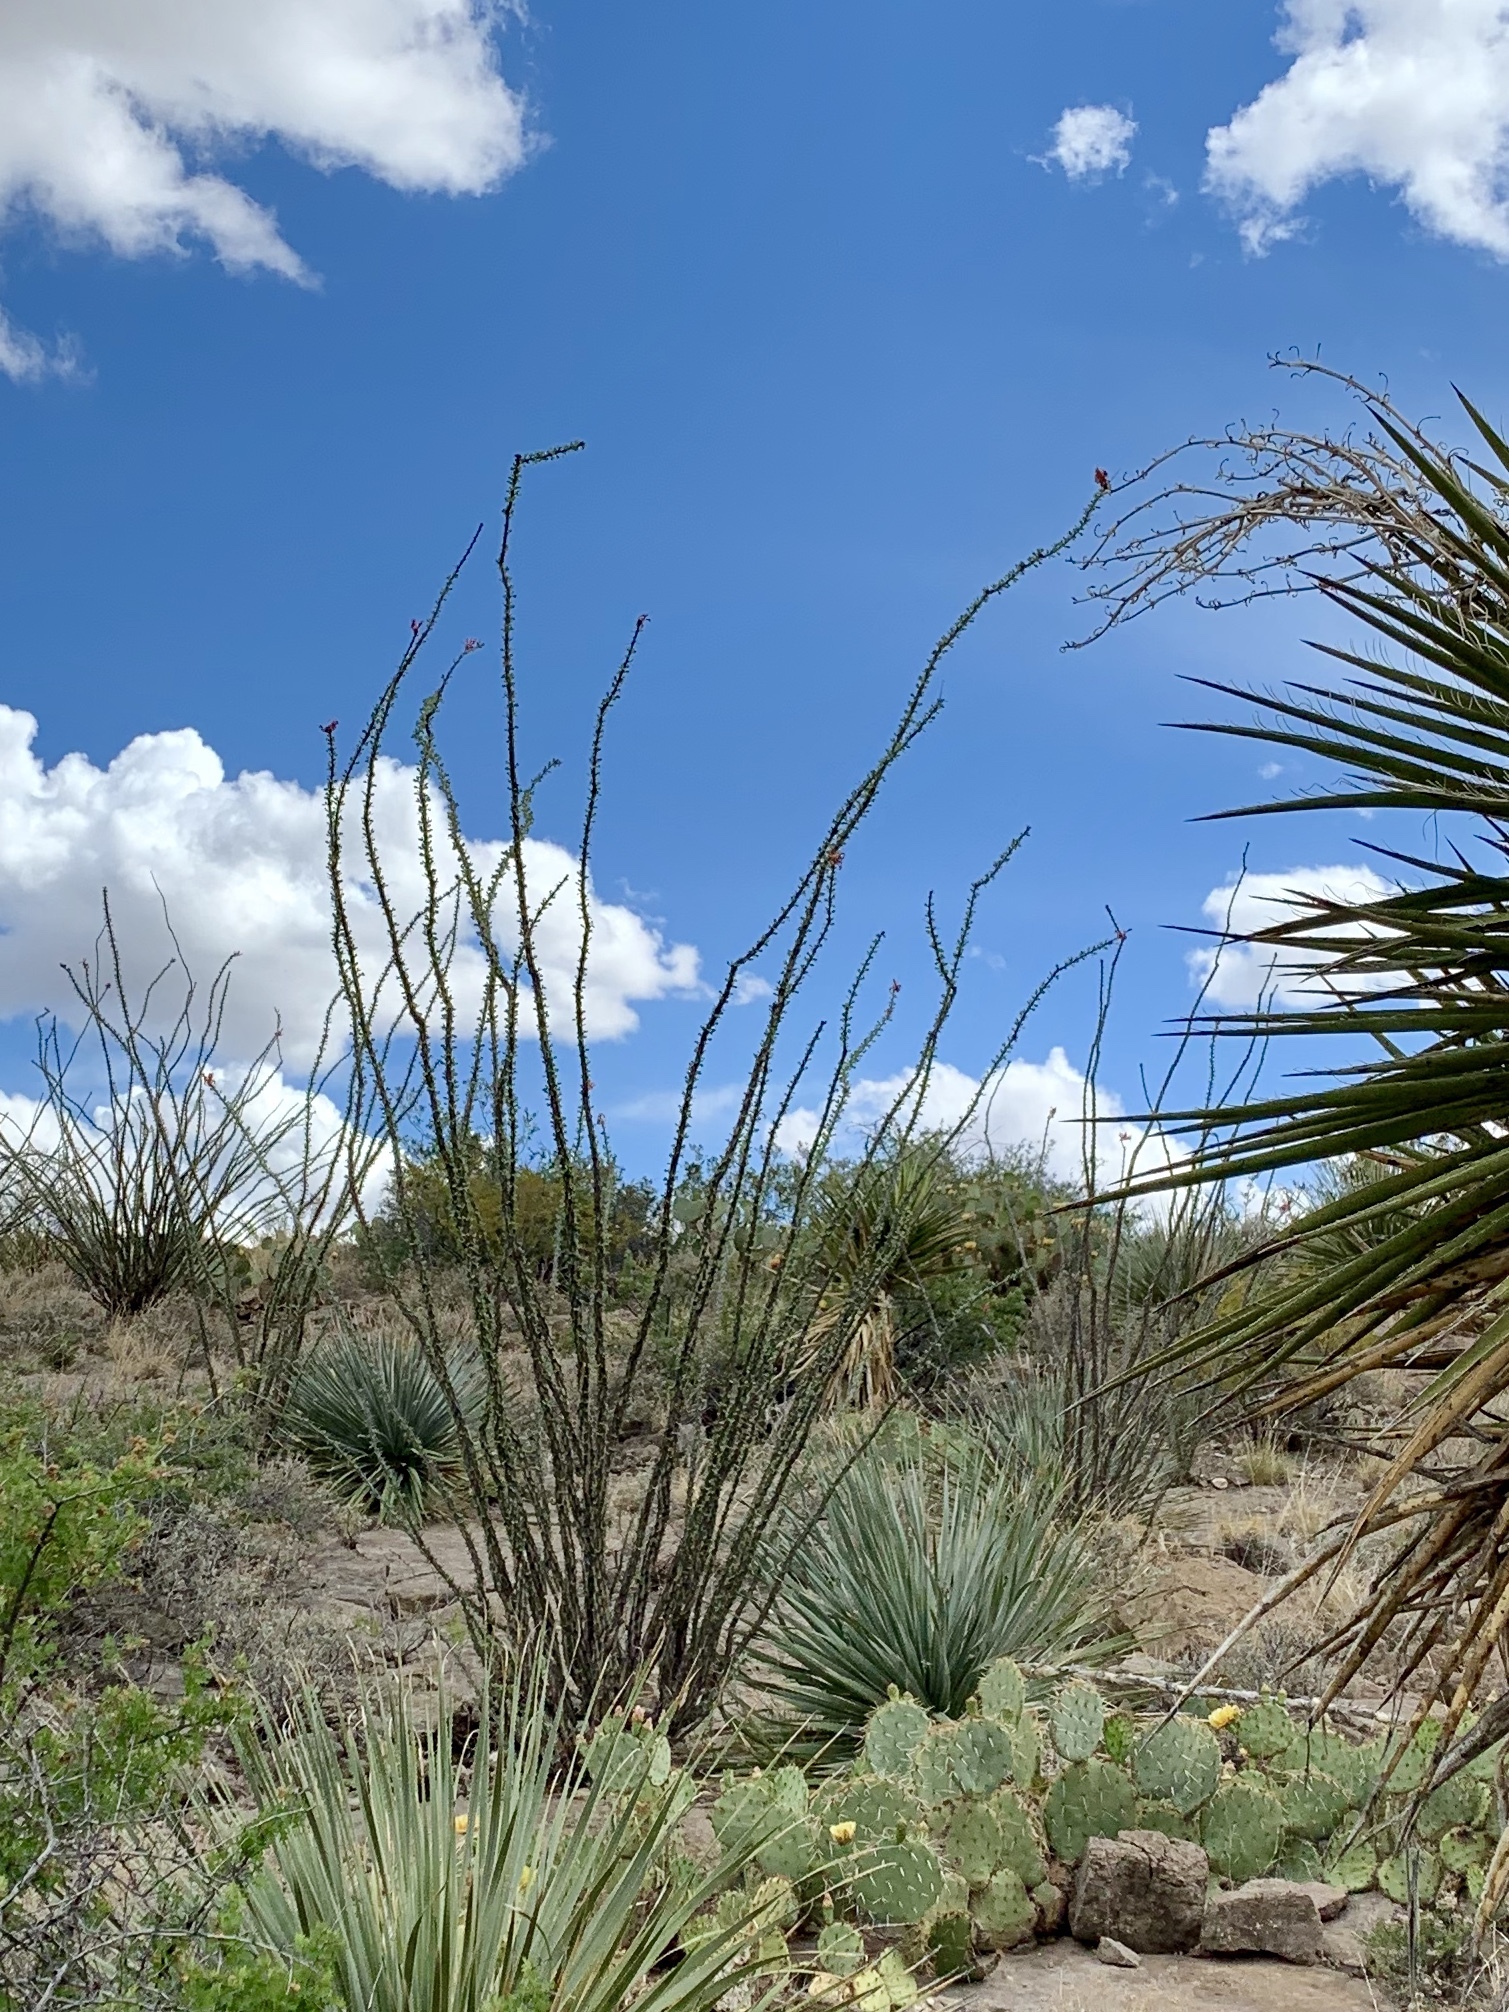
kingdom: Plantae
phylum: Tracheophyta
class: Magnoliopsida
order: Ericales
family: Fouquieriaceae
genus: Fouquieria
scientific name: Fouquieria splendens
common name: Vine-cactus
